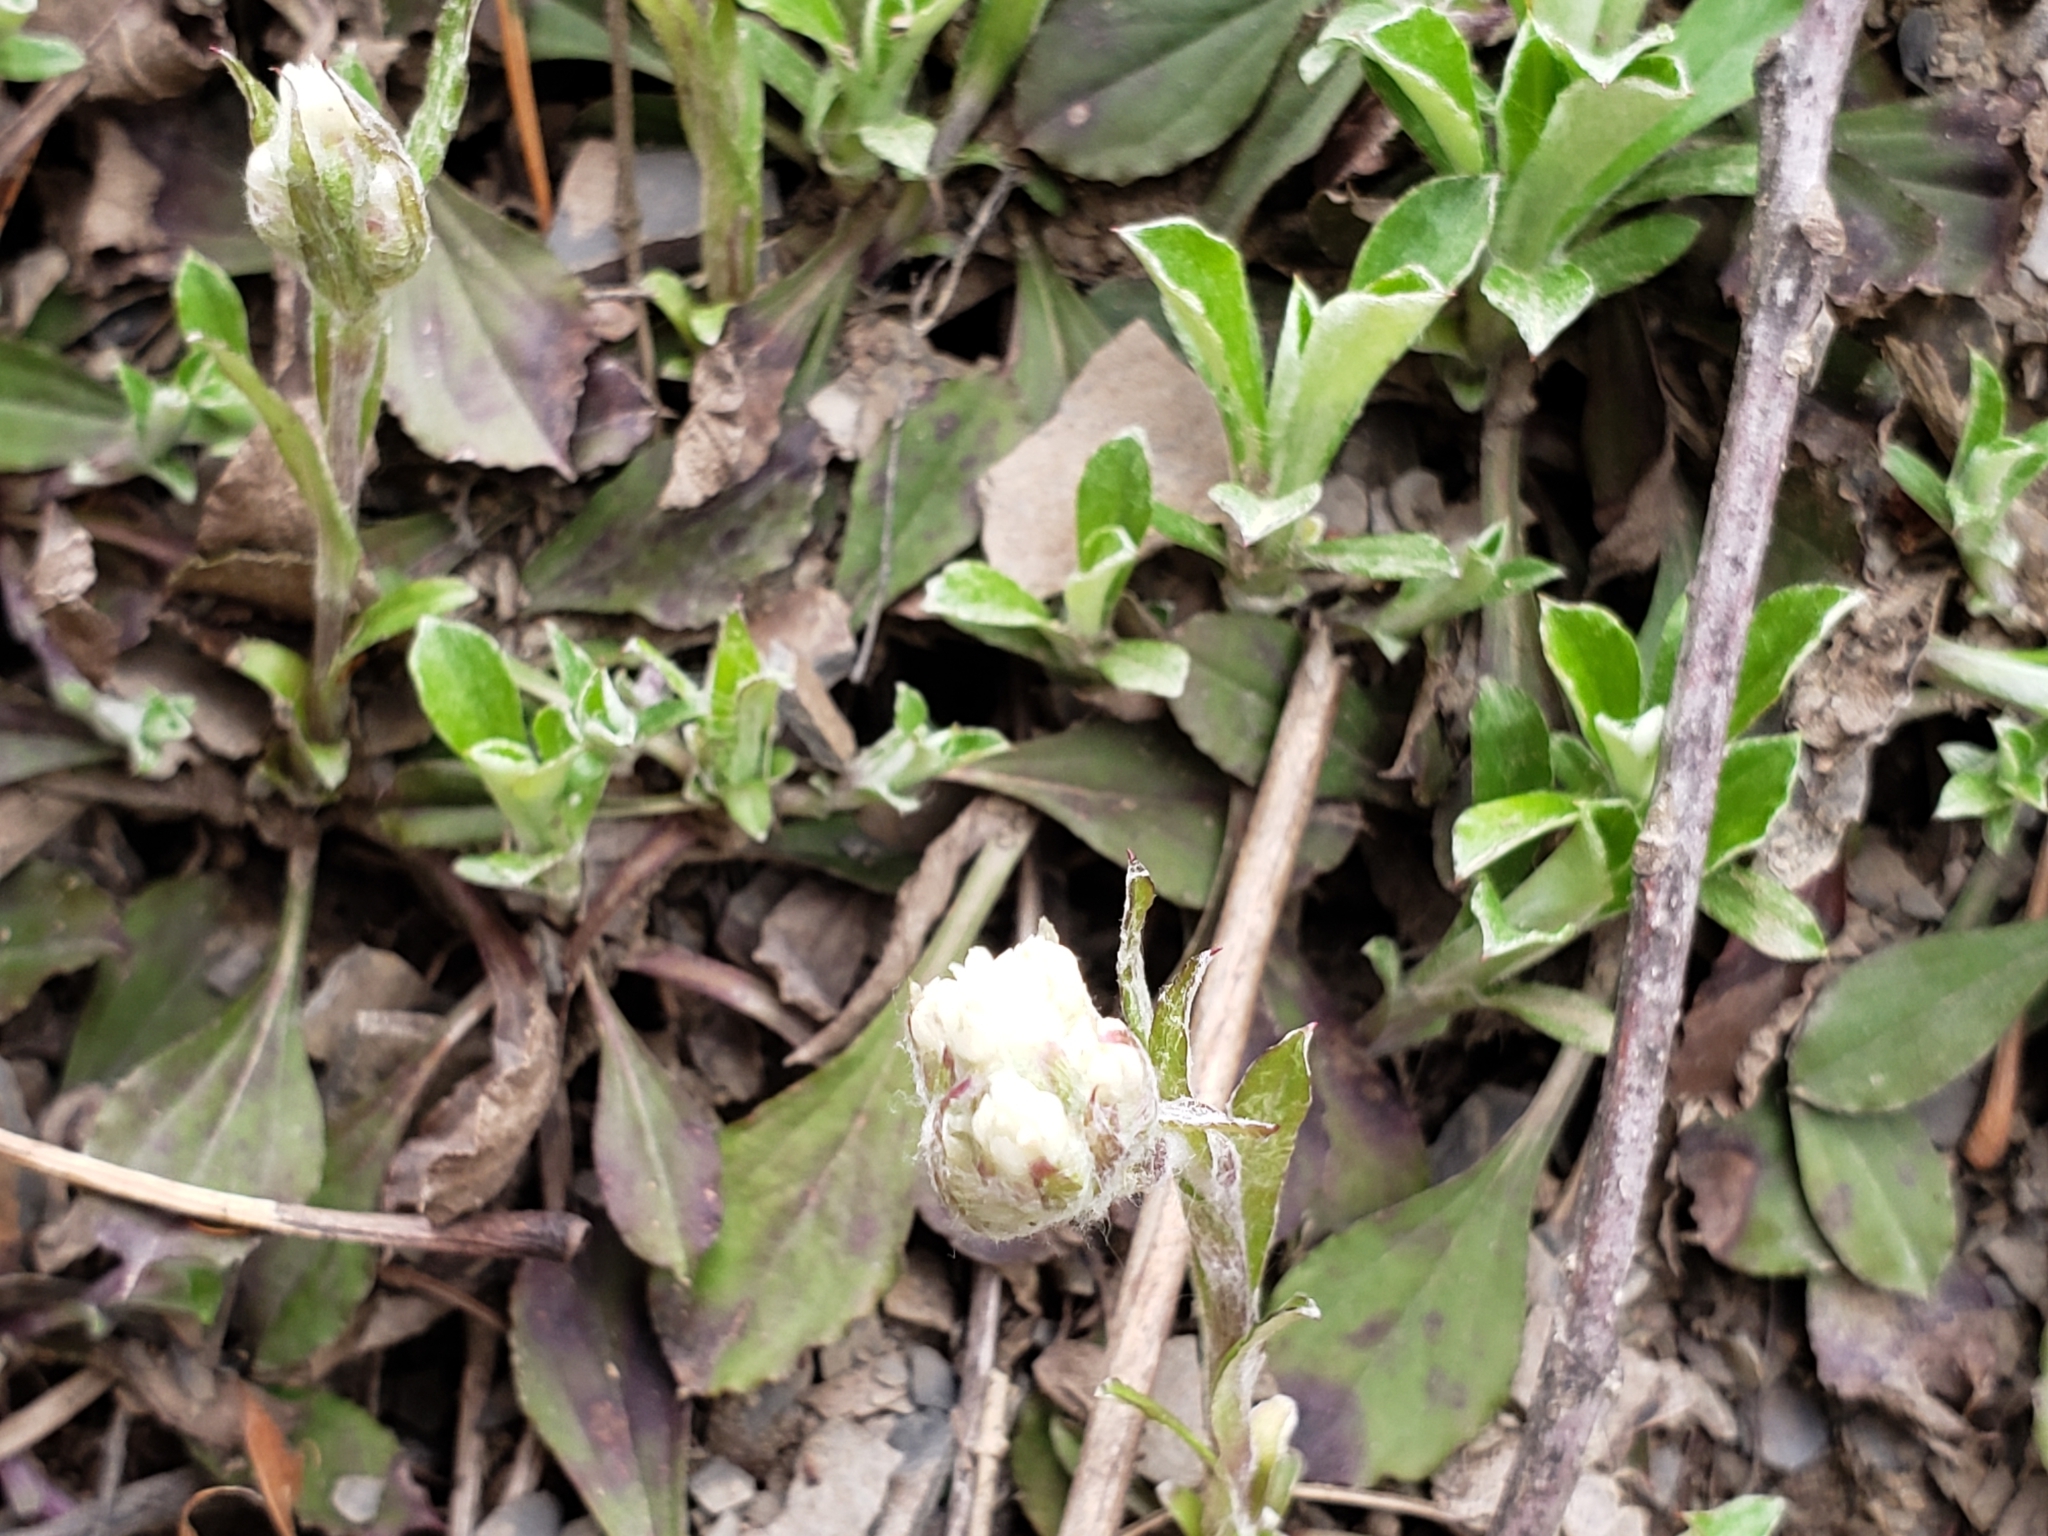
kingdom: Plantae
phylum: Tracheophyta
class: Magnoliopsida
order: Asterales
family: Asteraceae
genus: Antennaria
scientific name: Antennaria plantaginifolia
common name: Plantain-leaved pussytoes
